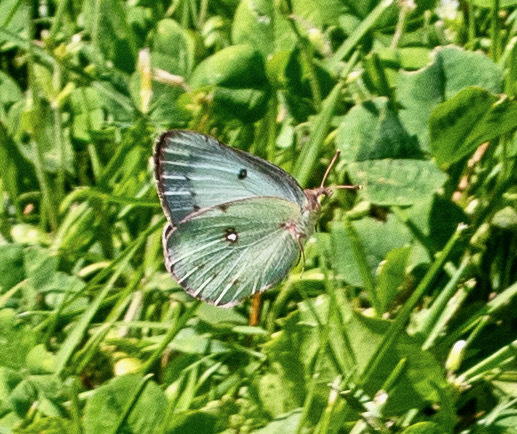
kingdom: Animalia
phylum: Arthropoda
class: Insecta
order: Lepidoptera
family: Pieridae
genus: Colias
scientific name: Colias philodice
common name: Clouded sulphur
